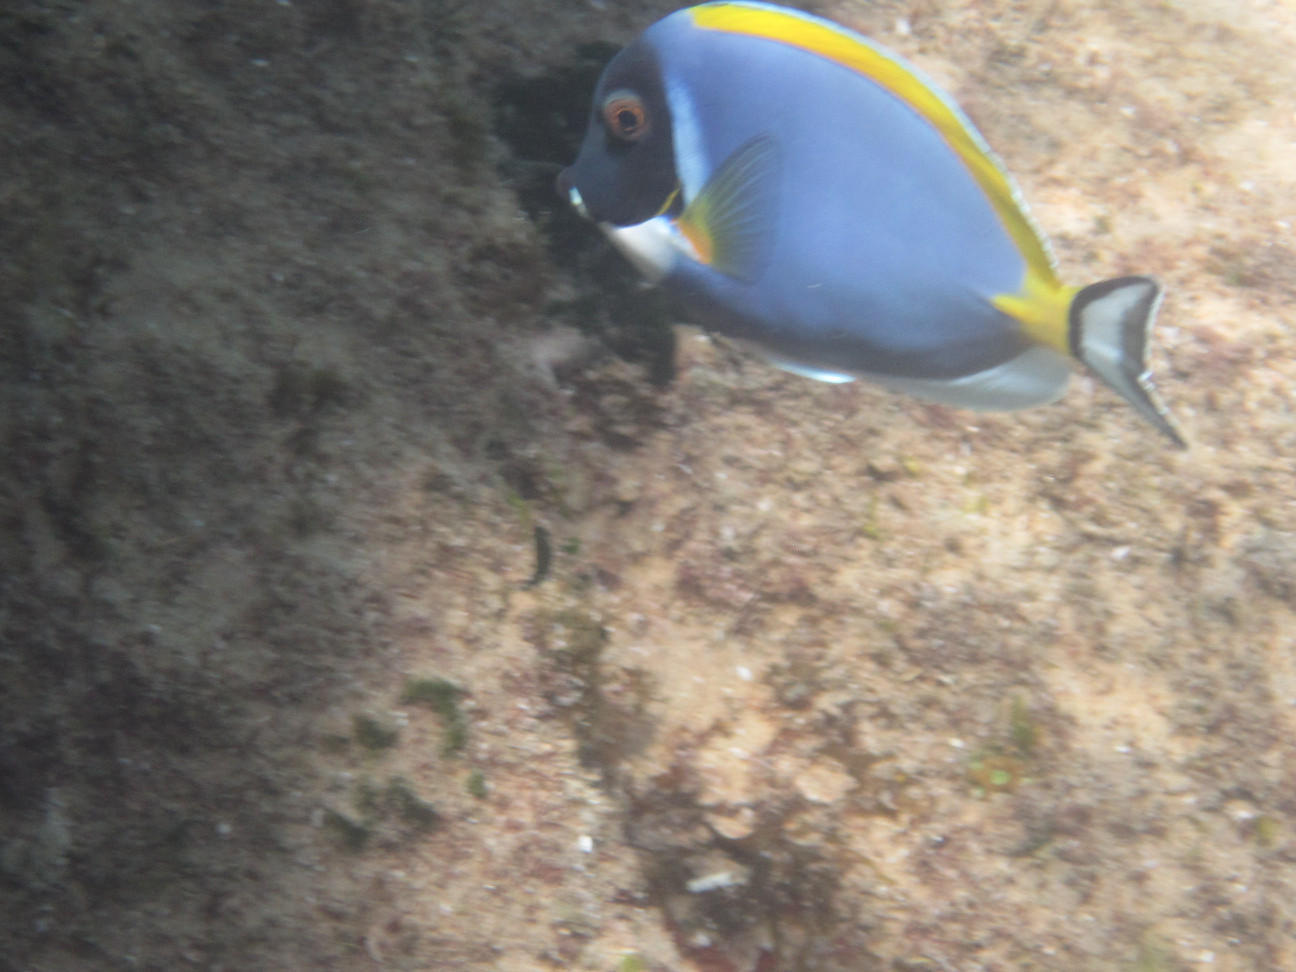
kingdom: Animalia
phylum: Chordata
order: Perciformes
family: Acanthuridae
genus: Acanthurus
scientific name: Acanthurus leucosternon
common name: Blue surgeonfish
